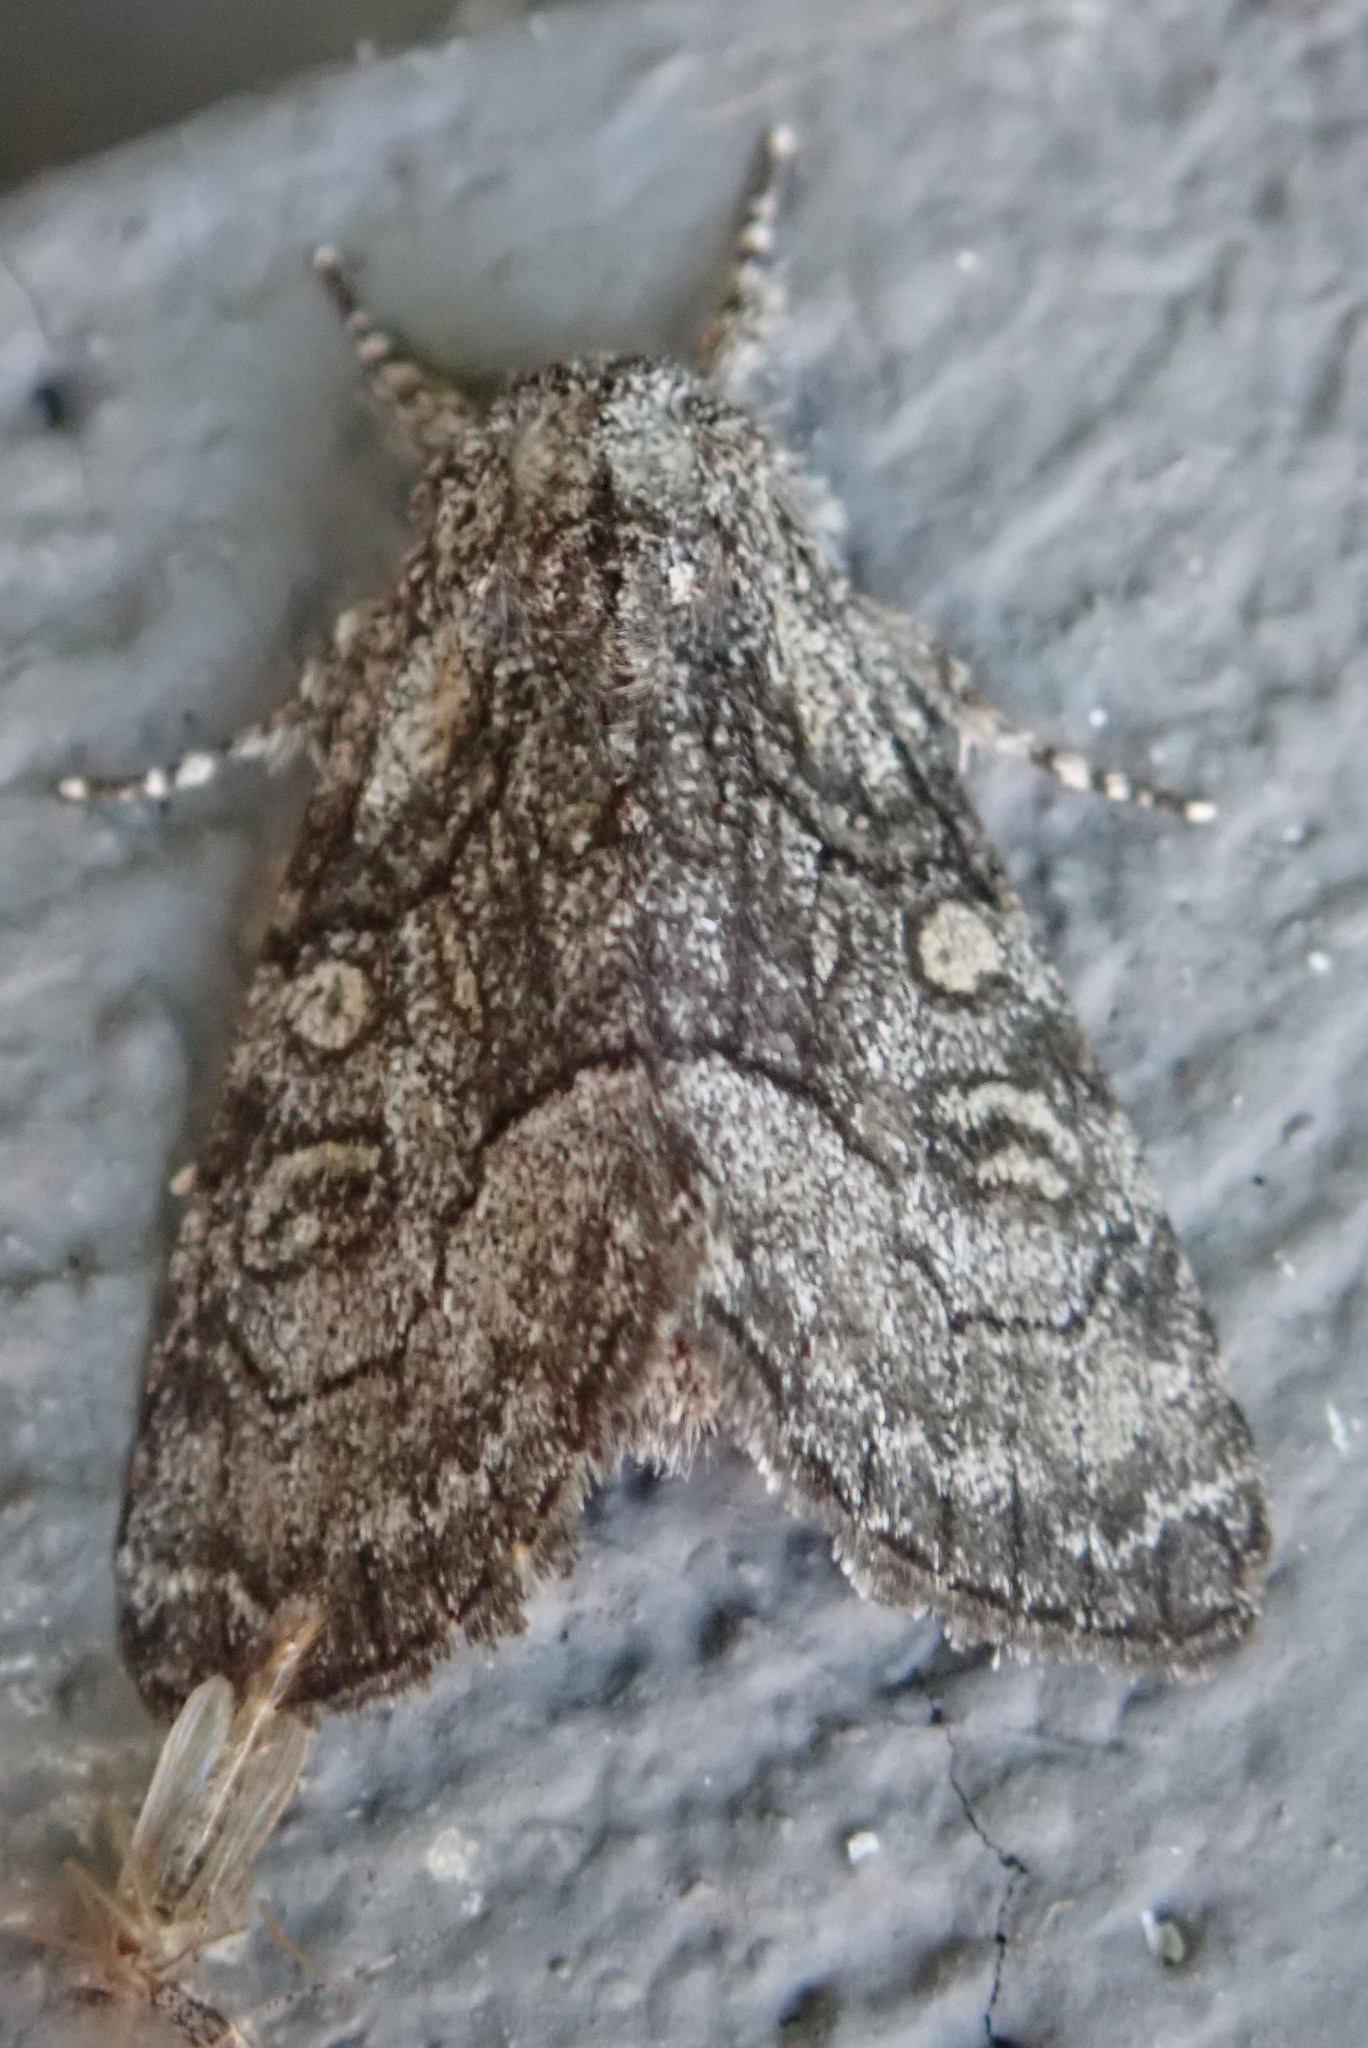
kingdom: Animalia
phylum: Arthropoda
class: Insecta
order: Lepidoptera
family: Noctuidae
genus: Raphia
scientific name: Raphia frater
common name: Brother
